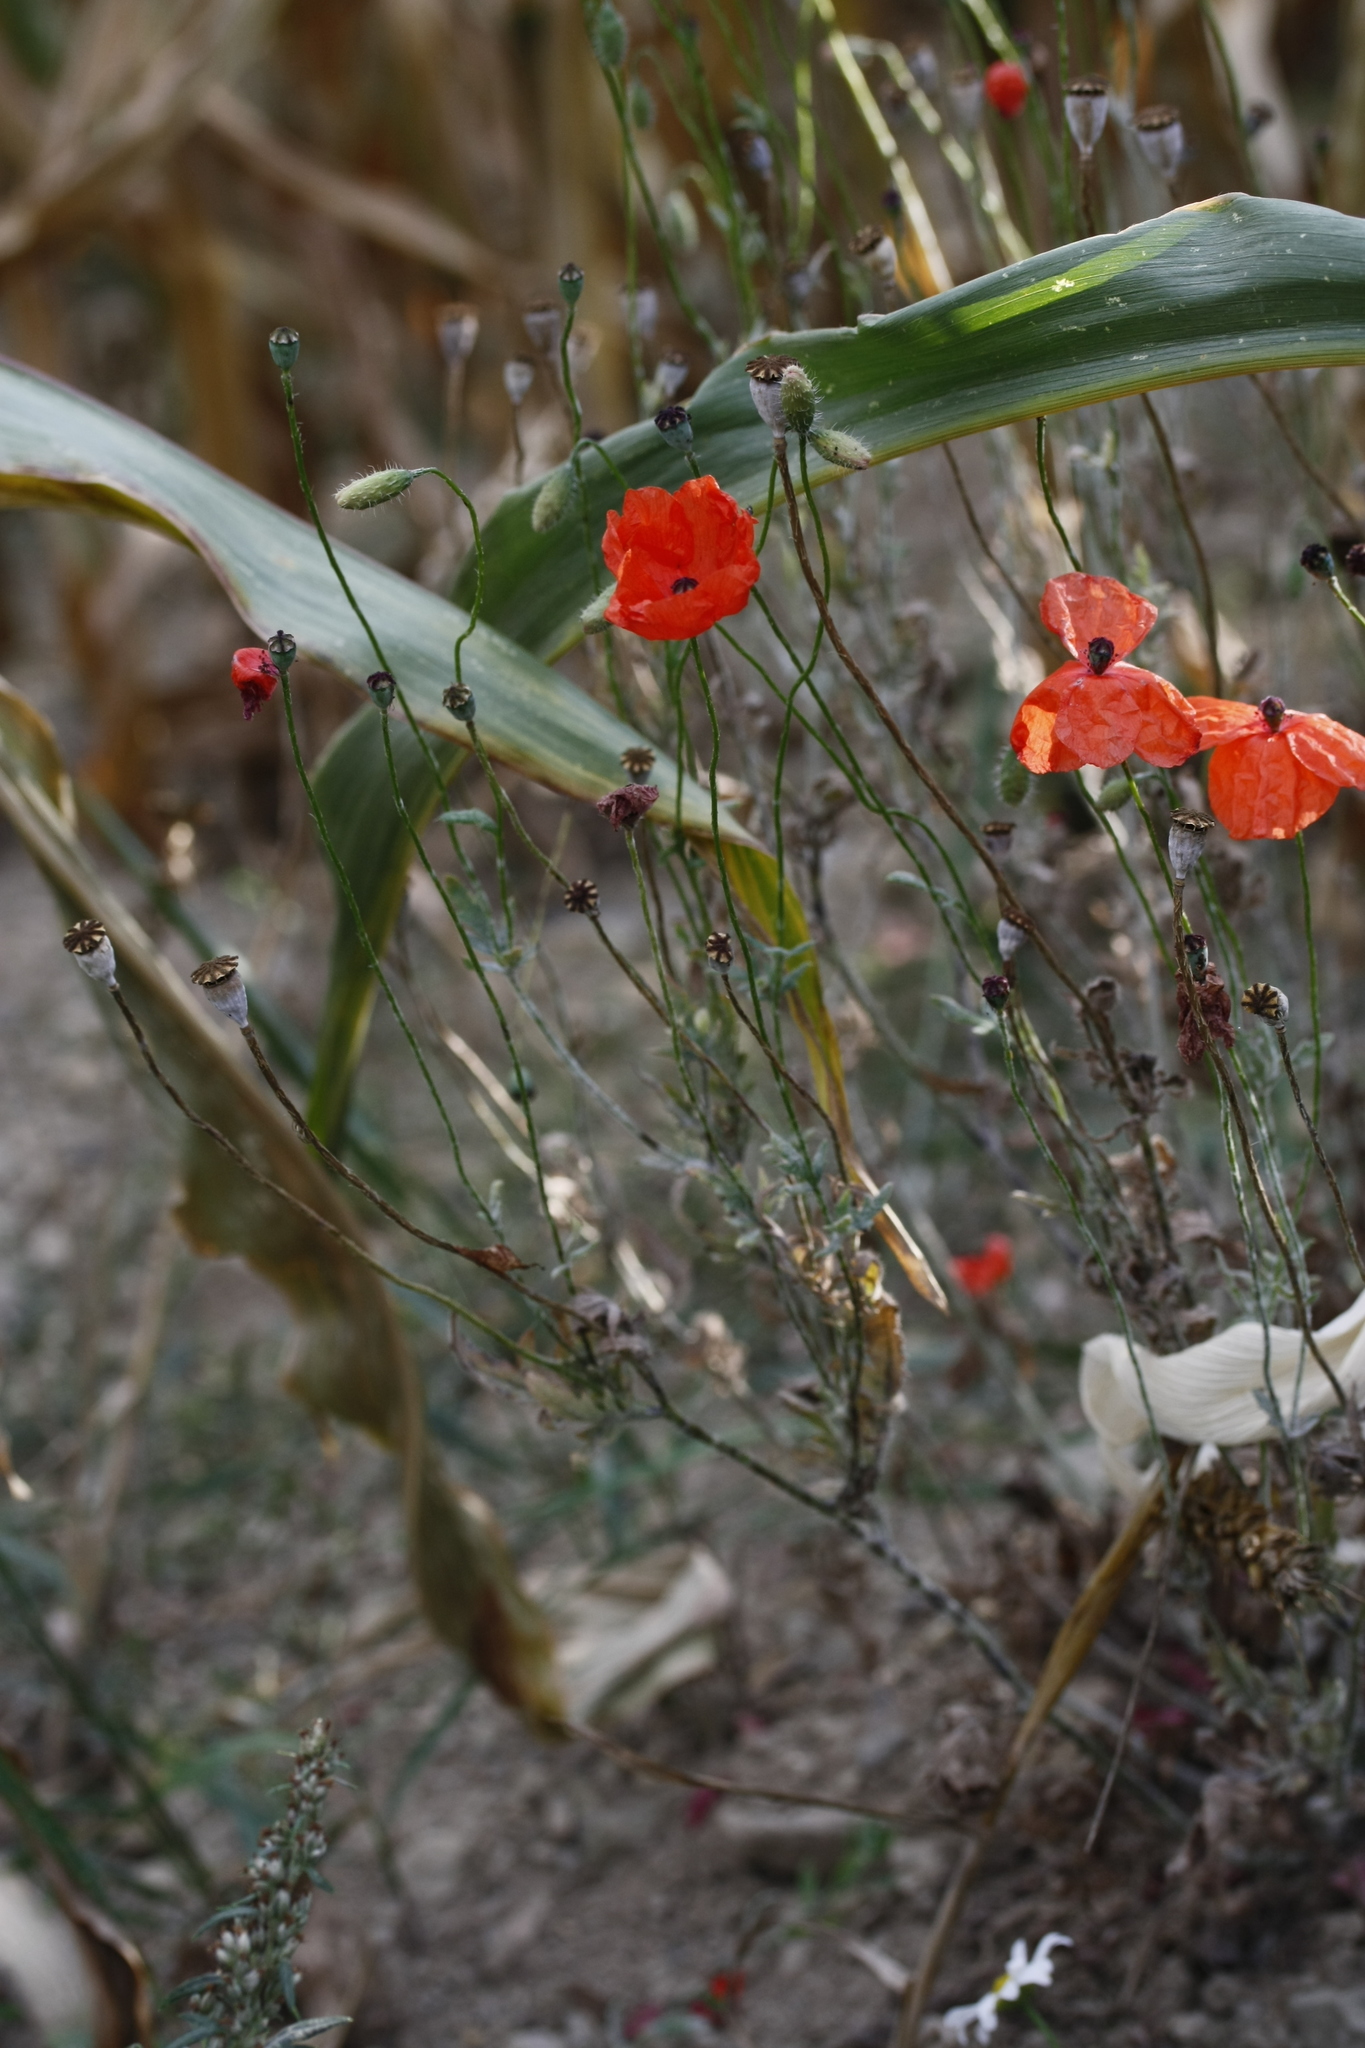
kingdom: Plantae
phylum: Tracheophyta
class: Magnoliopsida
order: Ranunculales
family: Papaveraceae
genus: Papaver
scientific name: Papaver rhoeas
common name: Corn poppy
